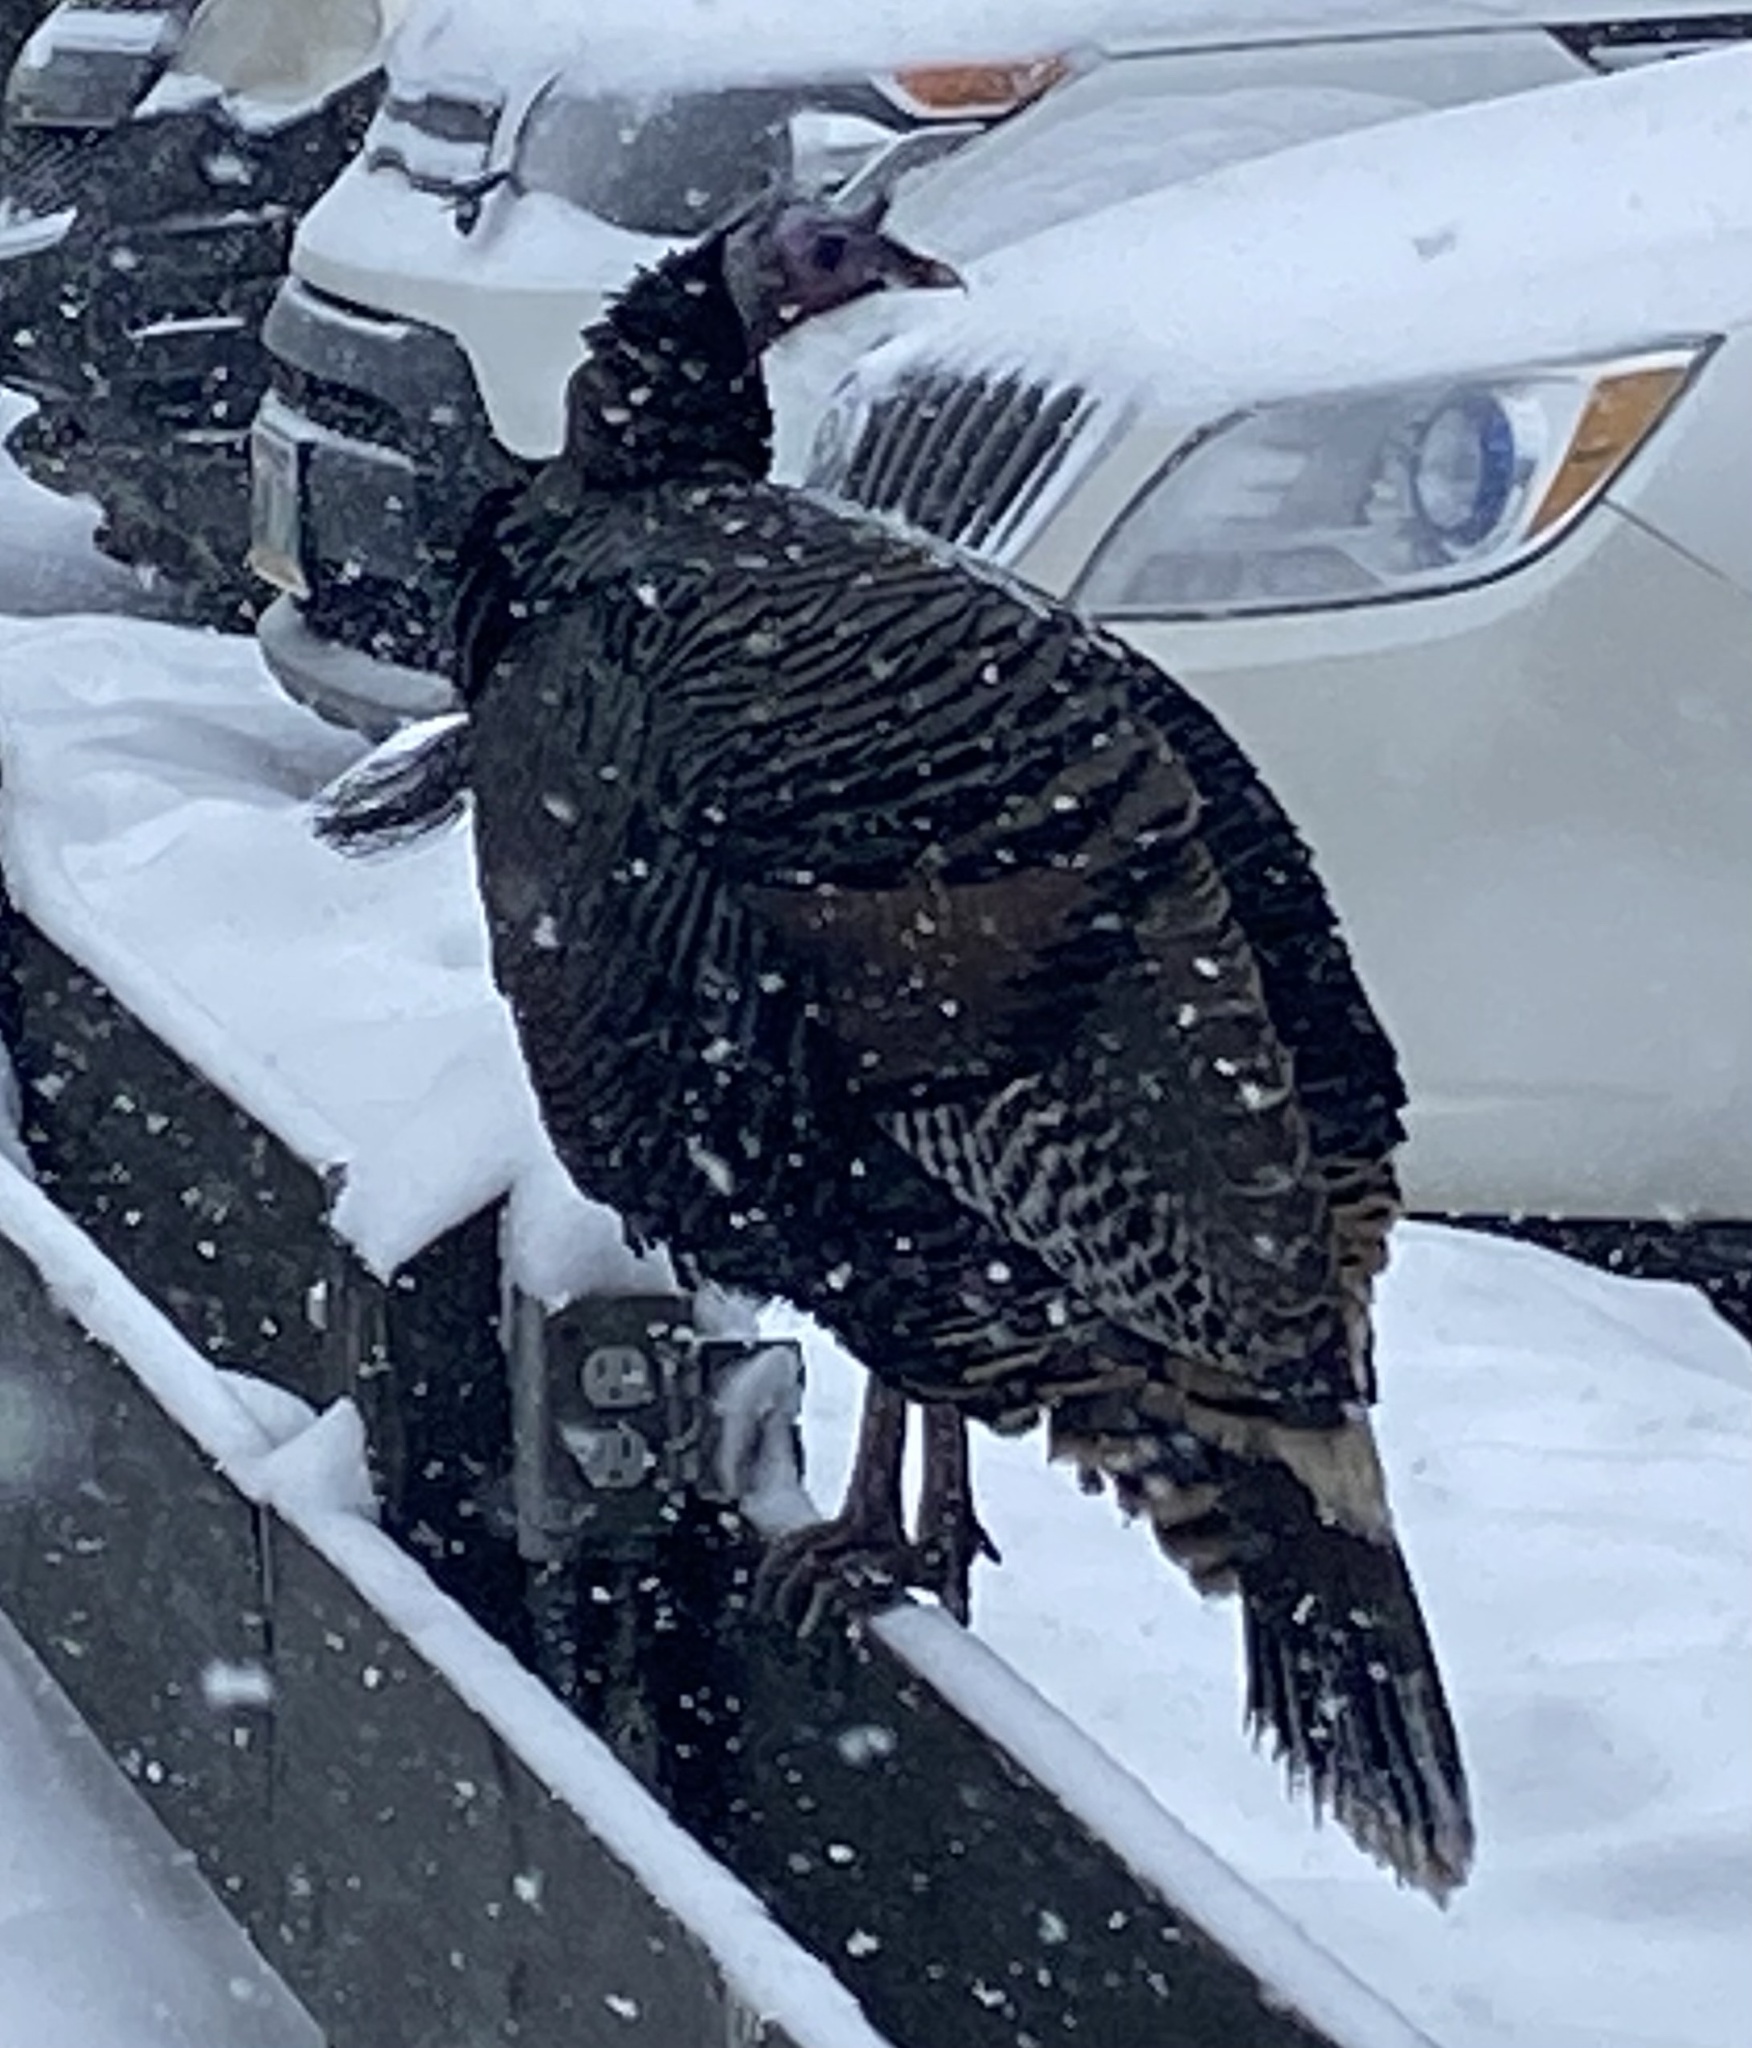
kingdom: Animalia
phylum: Chordata
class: Aves
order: Galliformes
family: Phasianidae
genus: Meleagris
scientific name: Meleagris gallopavo
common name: Wild turkey
